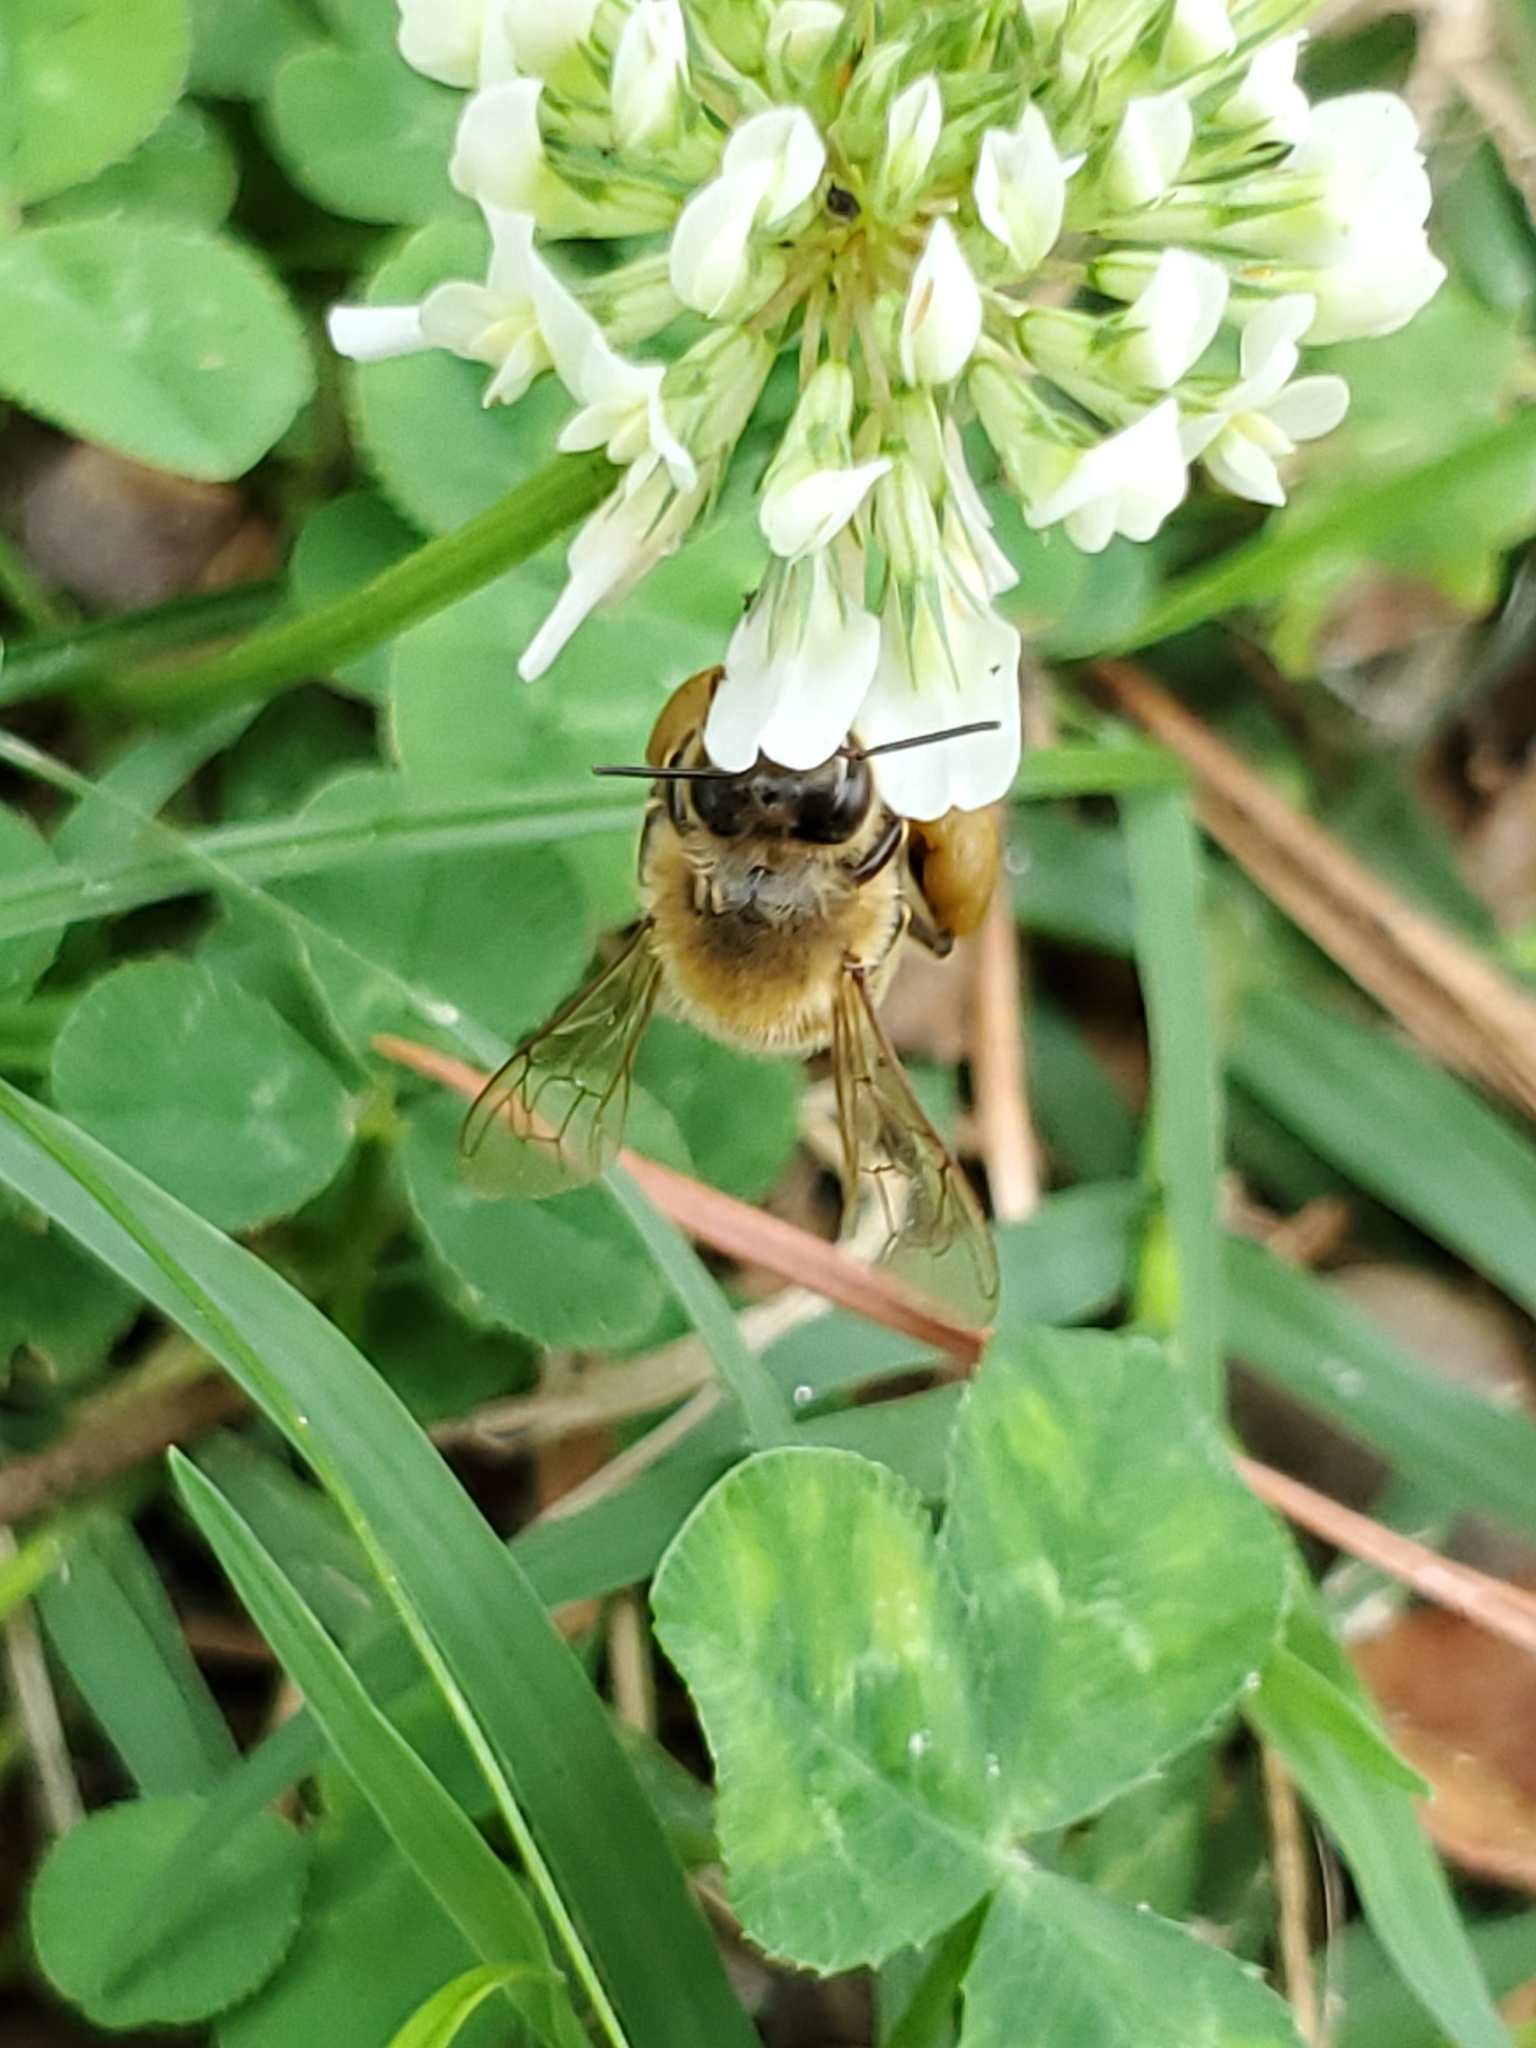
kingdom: Animalia
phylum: Arthropoda
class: Insecta
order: Hymenoptera
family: Apidae
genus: Apis
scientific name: Apis mellifera
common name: Honey bee
